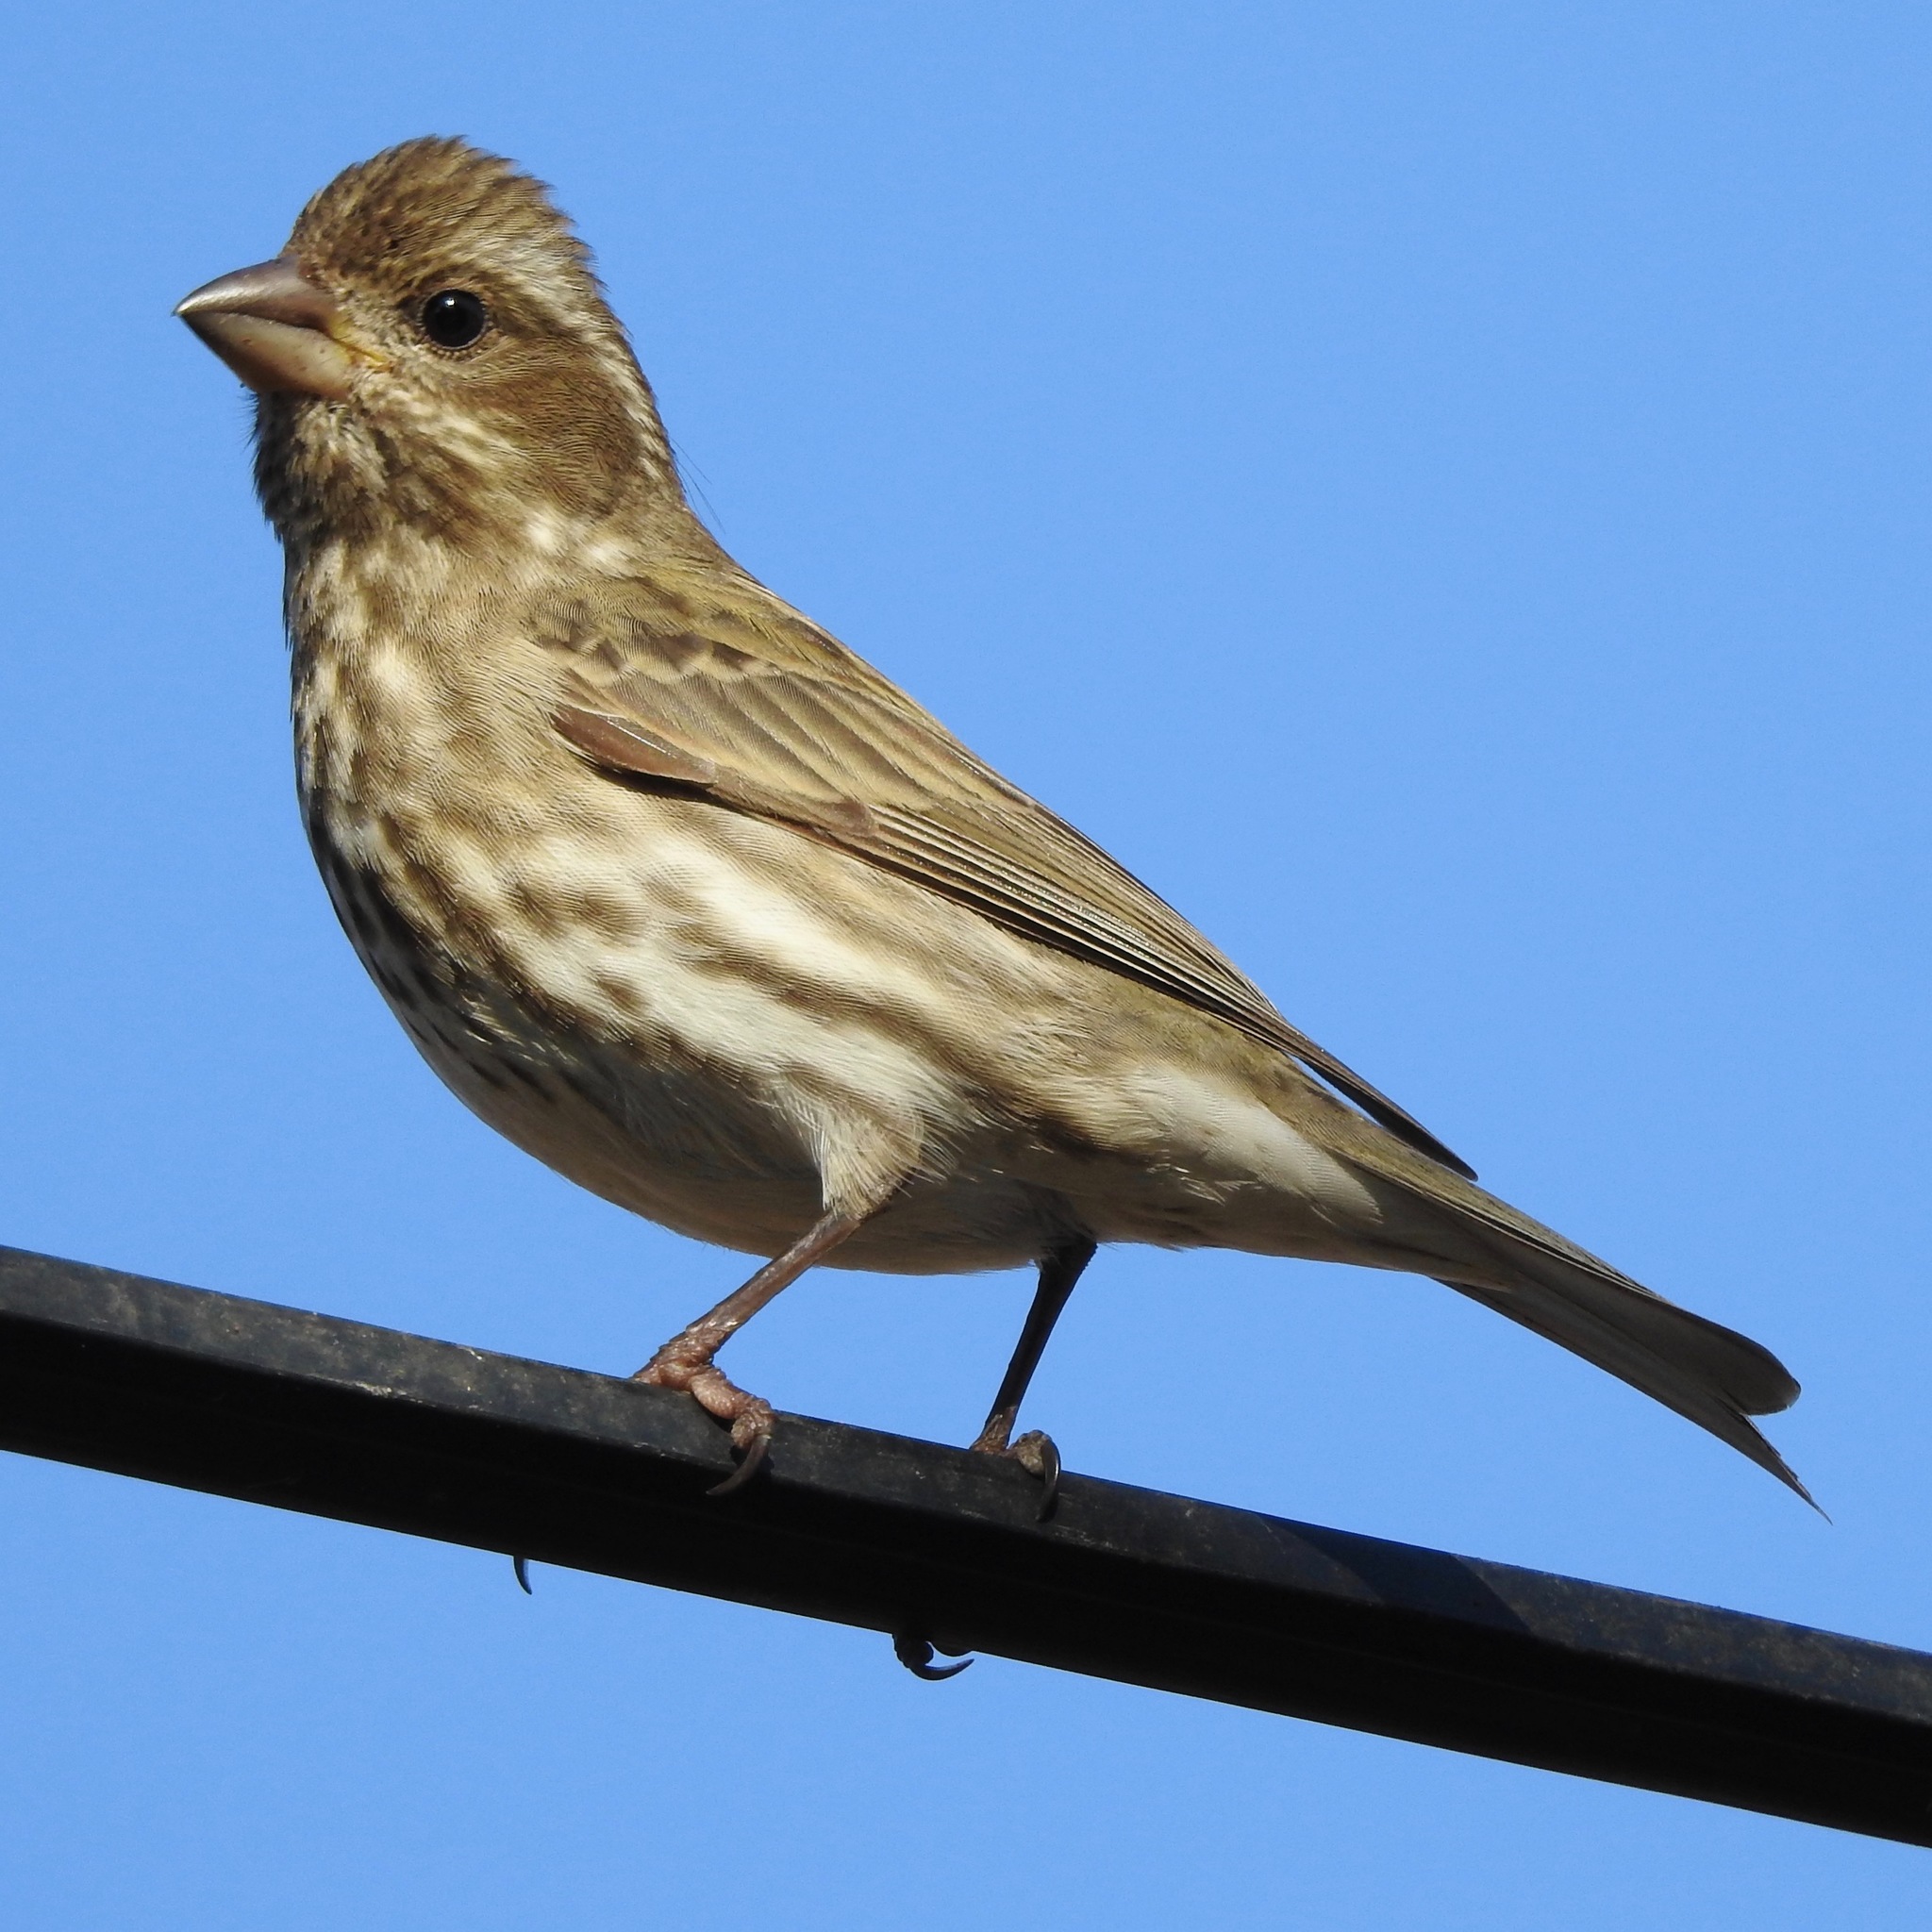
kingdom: Animalia
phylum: Chordata
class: Aves
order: Passeriformes
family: Fringillidae
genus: Haemorhous
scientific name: Haemorhous purpureus
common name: Purple finch
